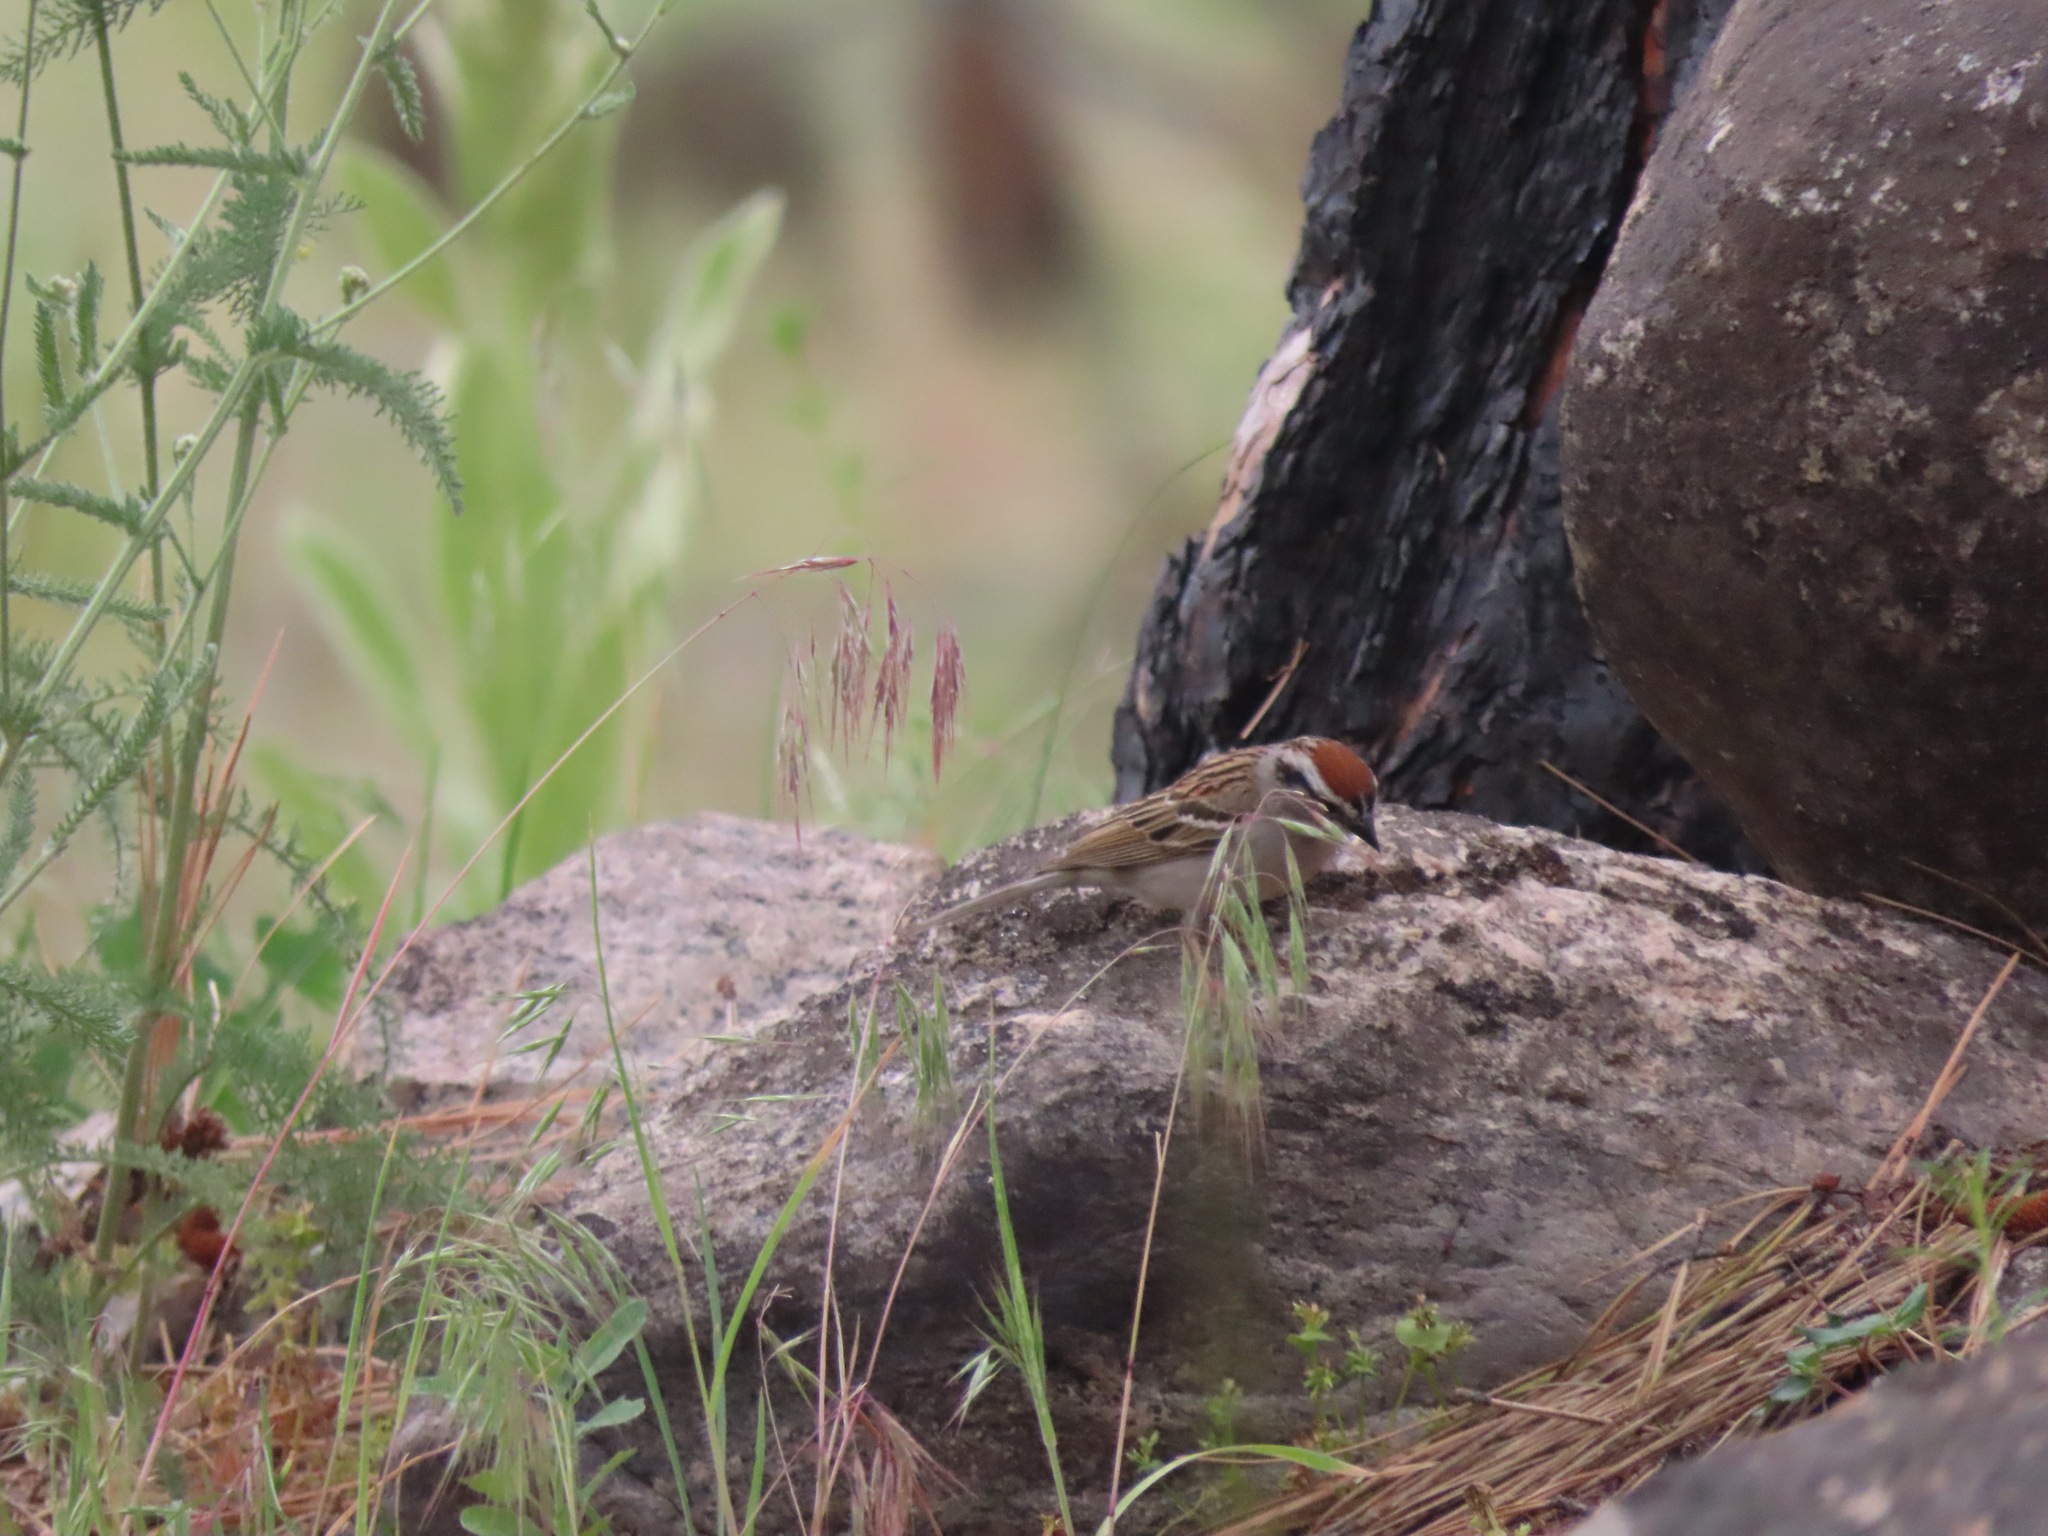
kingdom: Animalia
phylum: Chordata
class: Aves
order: Passeriformes
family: Passerellidae
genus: Spizella
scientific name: Spizella passerina
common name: Chipping sparrow
